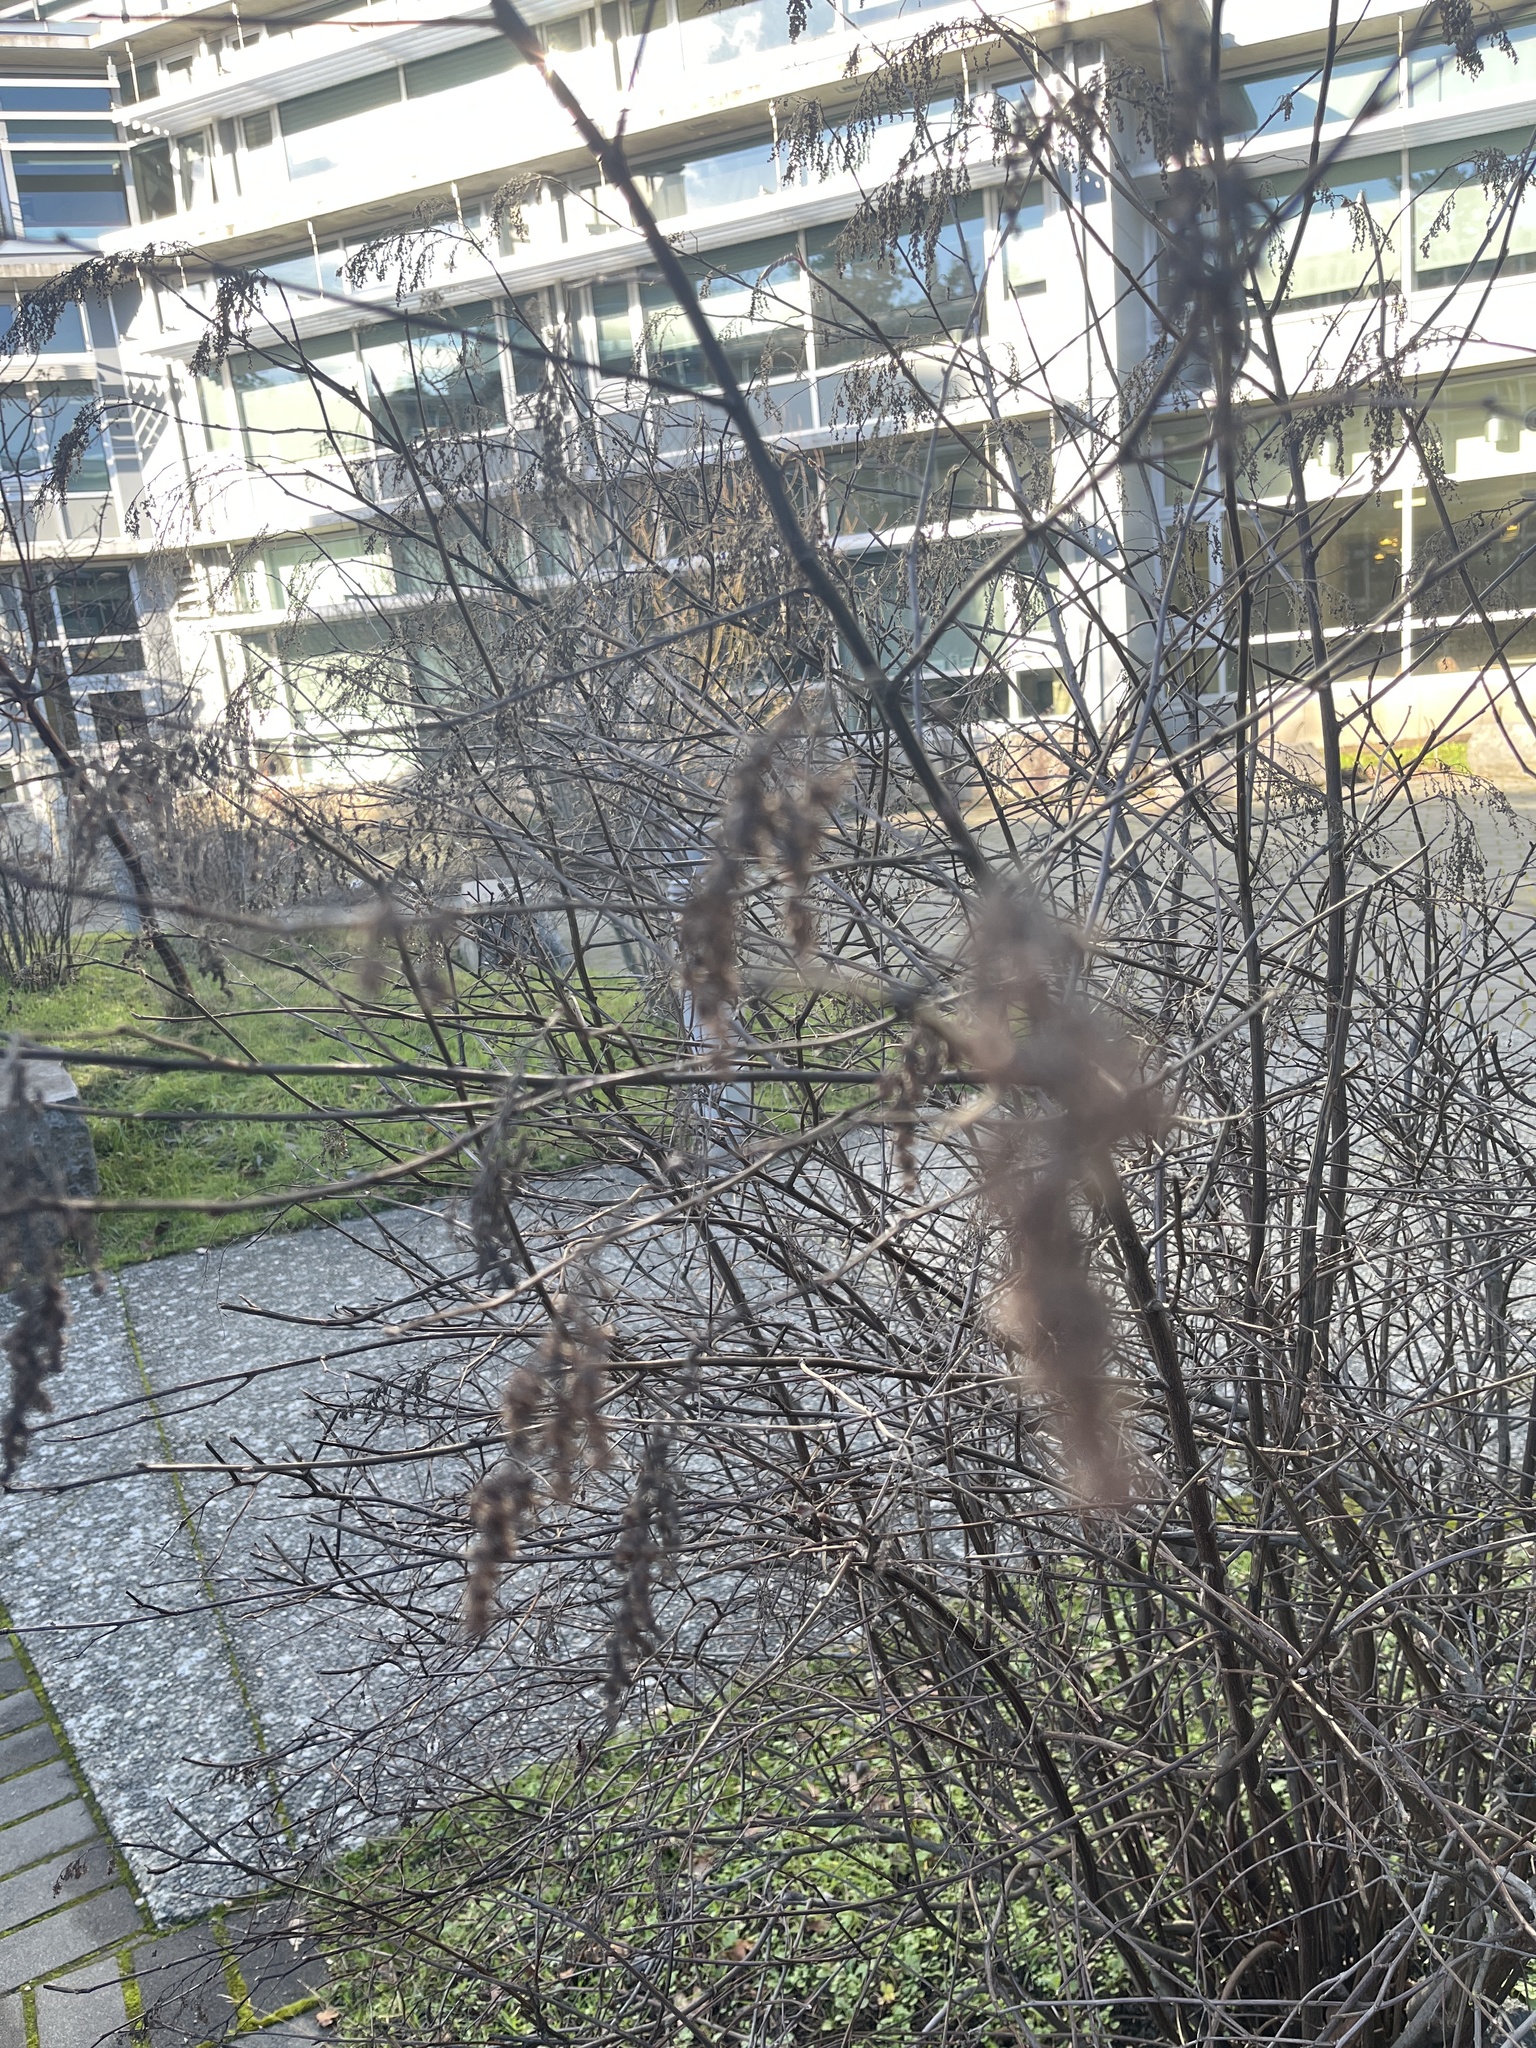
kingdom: Plantae
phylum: Tracheophyta
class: Magnoliopsida
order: Rosales
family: Rosaceae
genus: Holodiscus
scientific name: Holodiscus discolor
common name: Oceanspray
